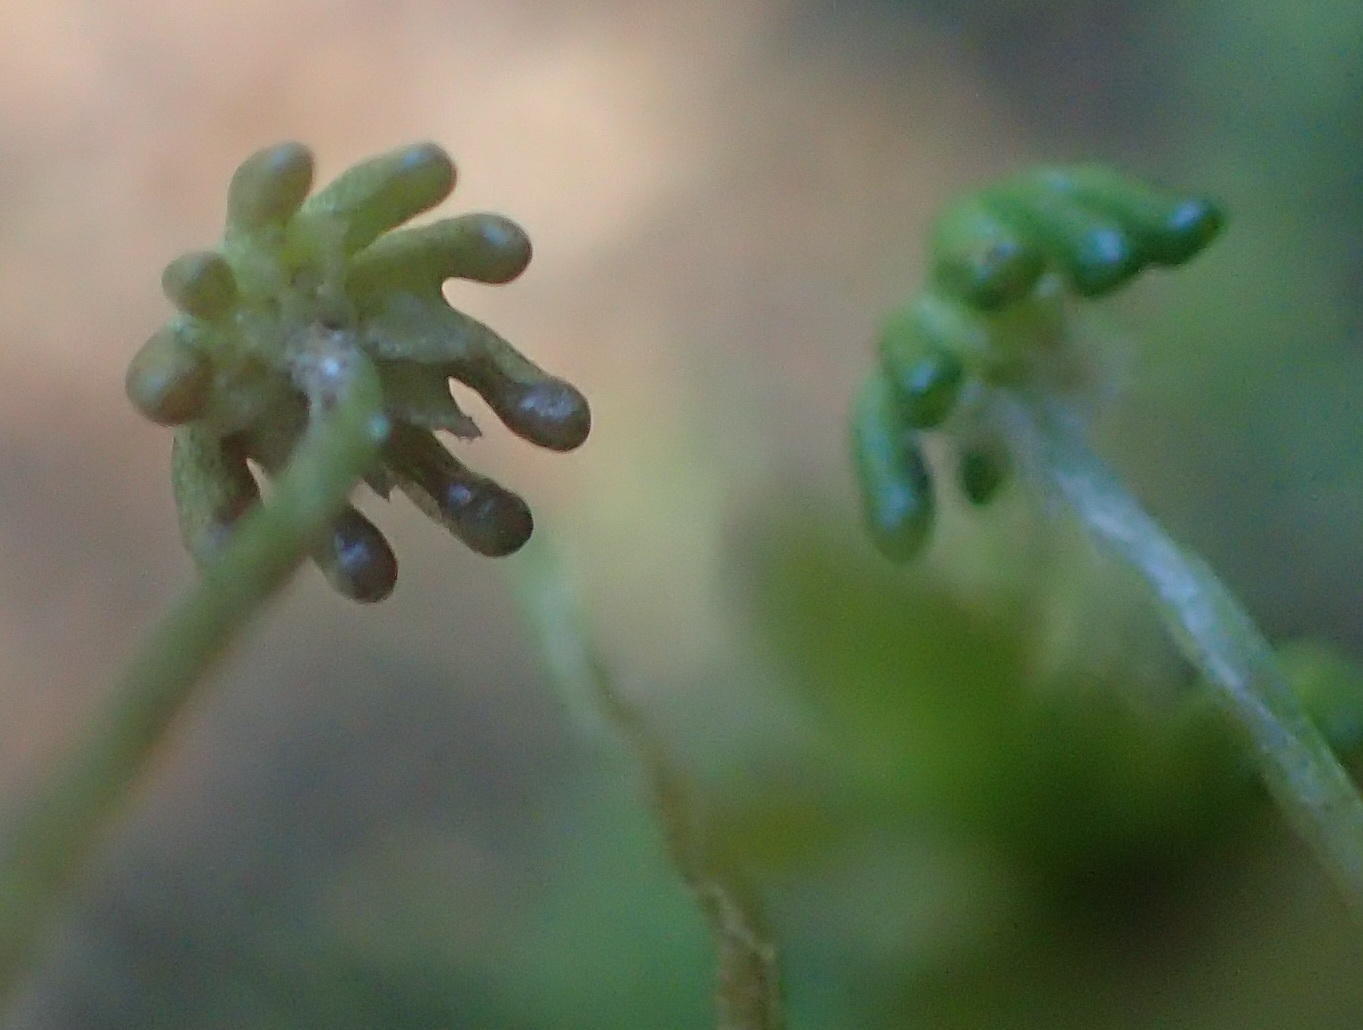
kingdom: Plantae
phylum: Marchantiophyta
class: Marchantiopsida
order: Marchantiales
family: Marchantiaceae
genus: Marchantia
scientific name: Marchantia berteroana
